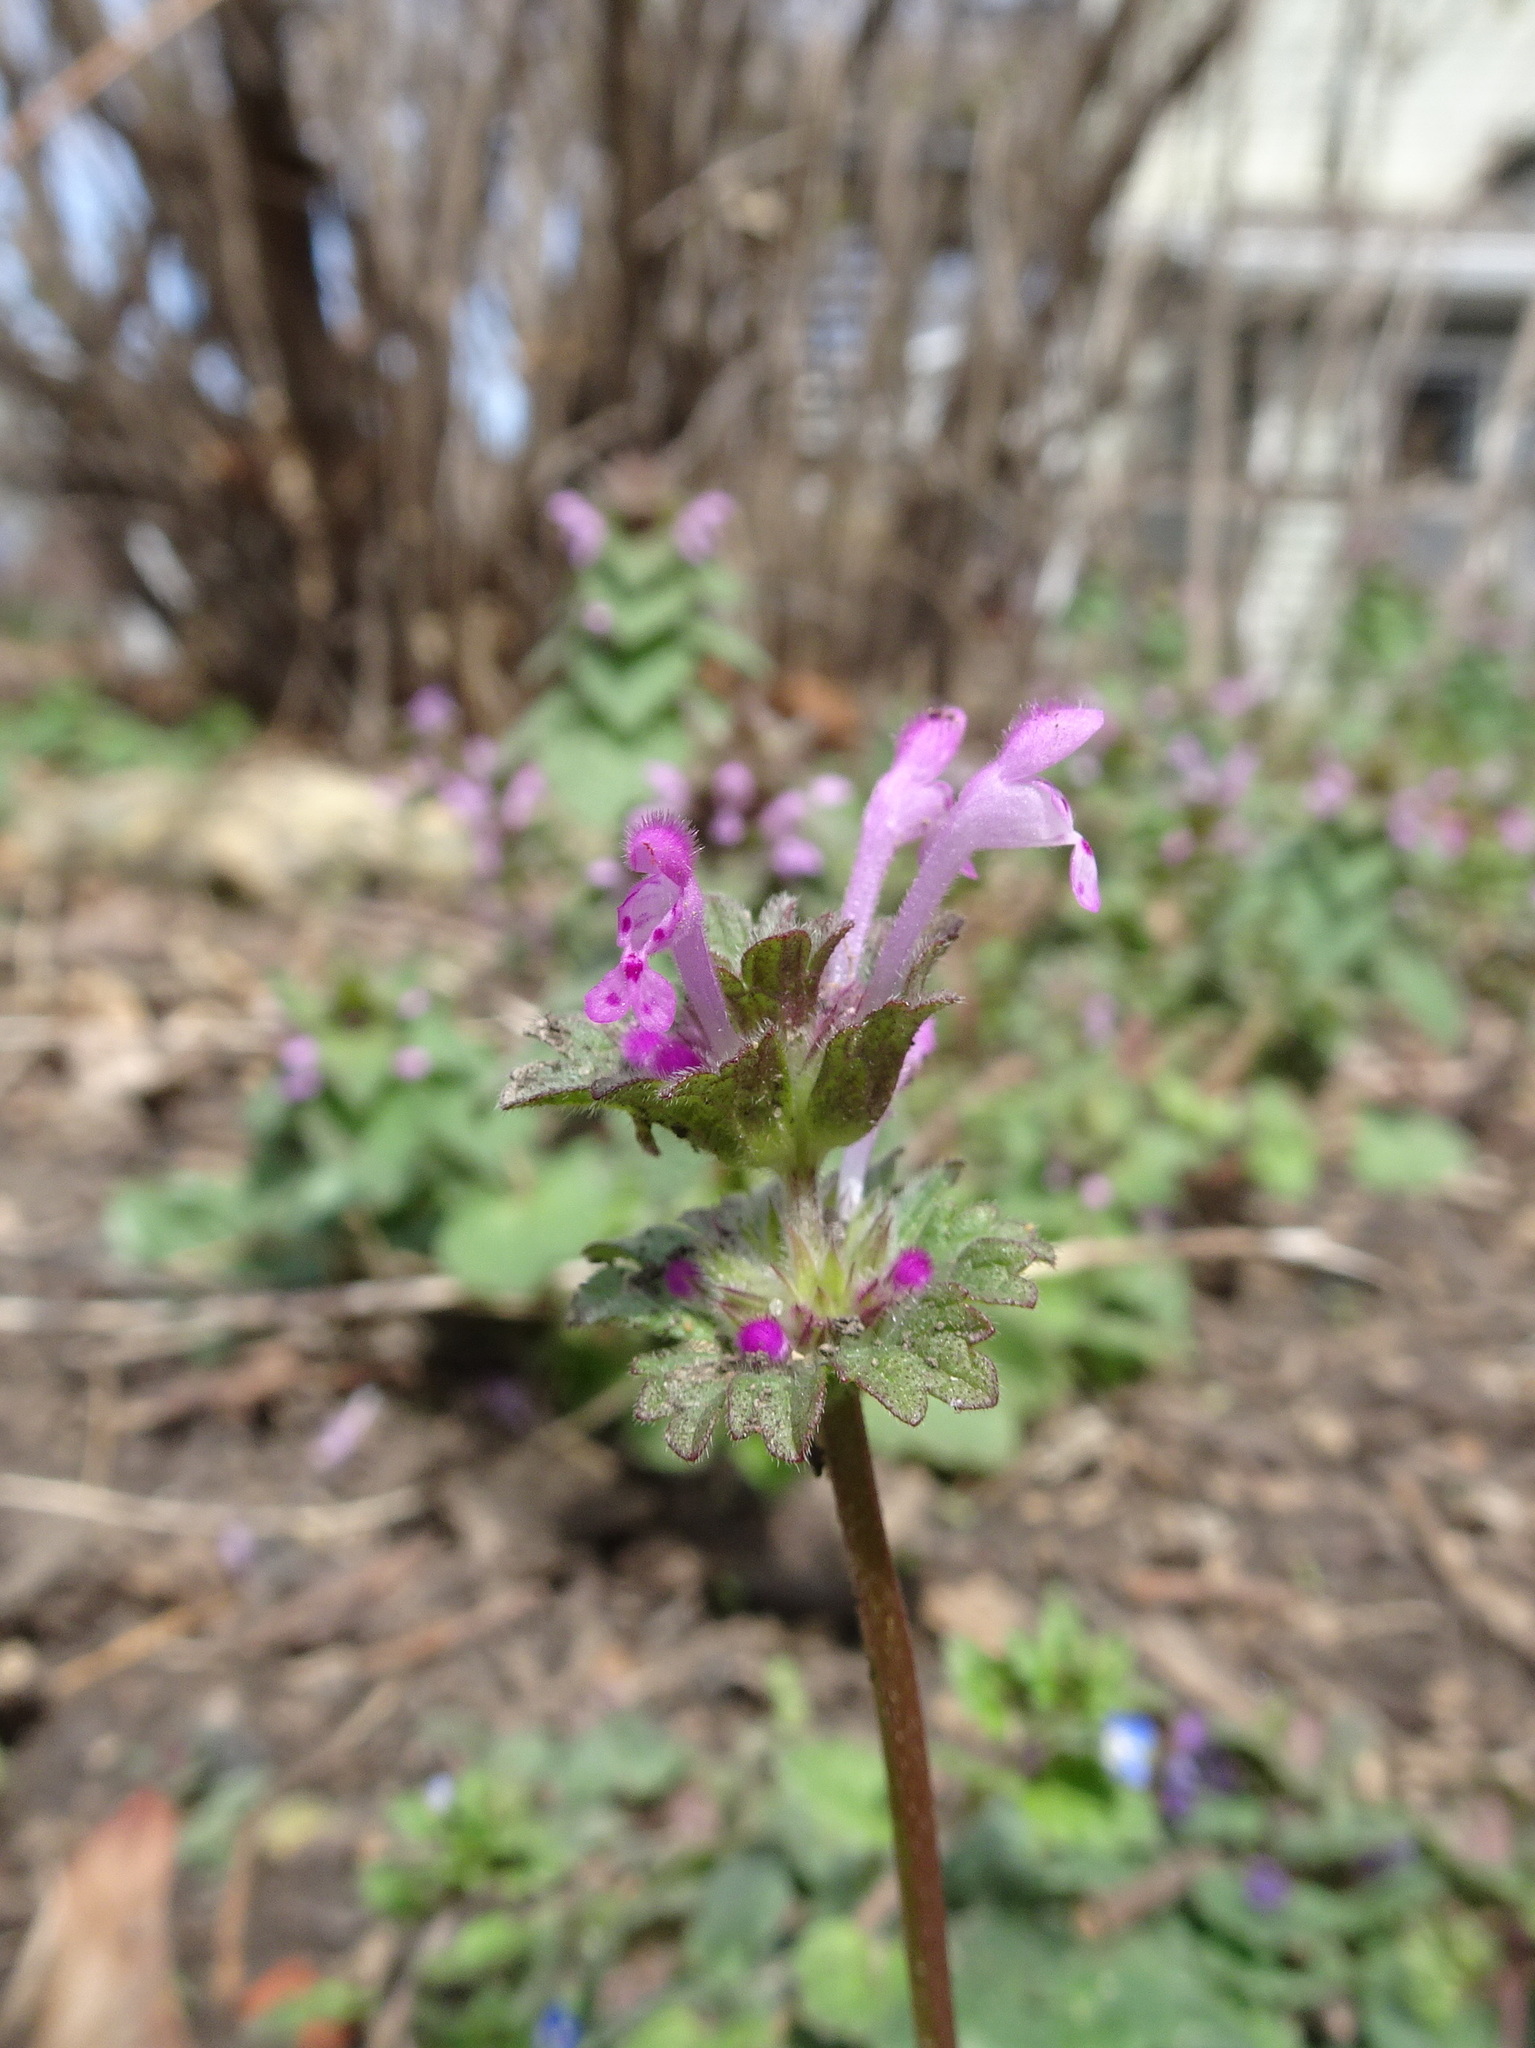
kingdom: Plantae
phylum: Tracheophyta
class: Magnoliopsida
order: Lamiales
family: Lamiaceae
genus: Lamium
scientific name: Lamium amplexicaule
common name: Henbit dead-nettle
